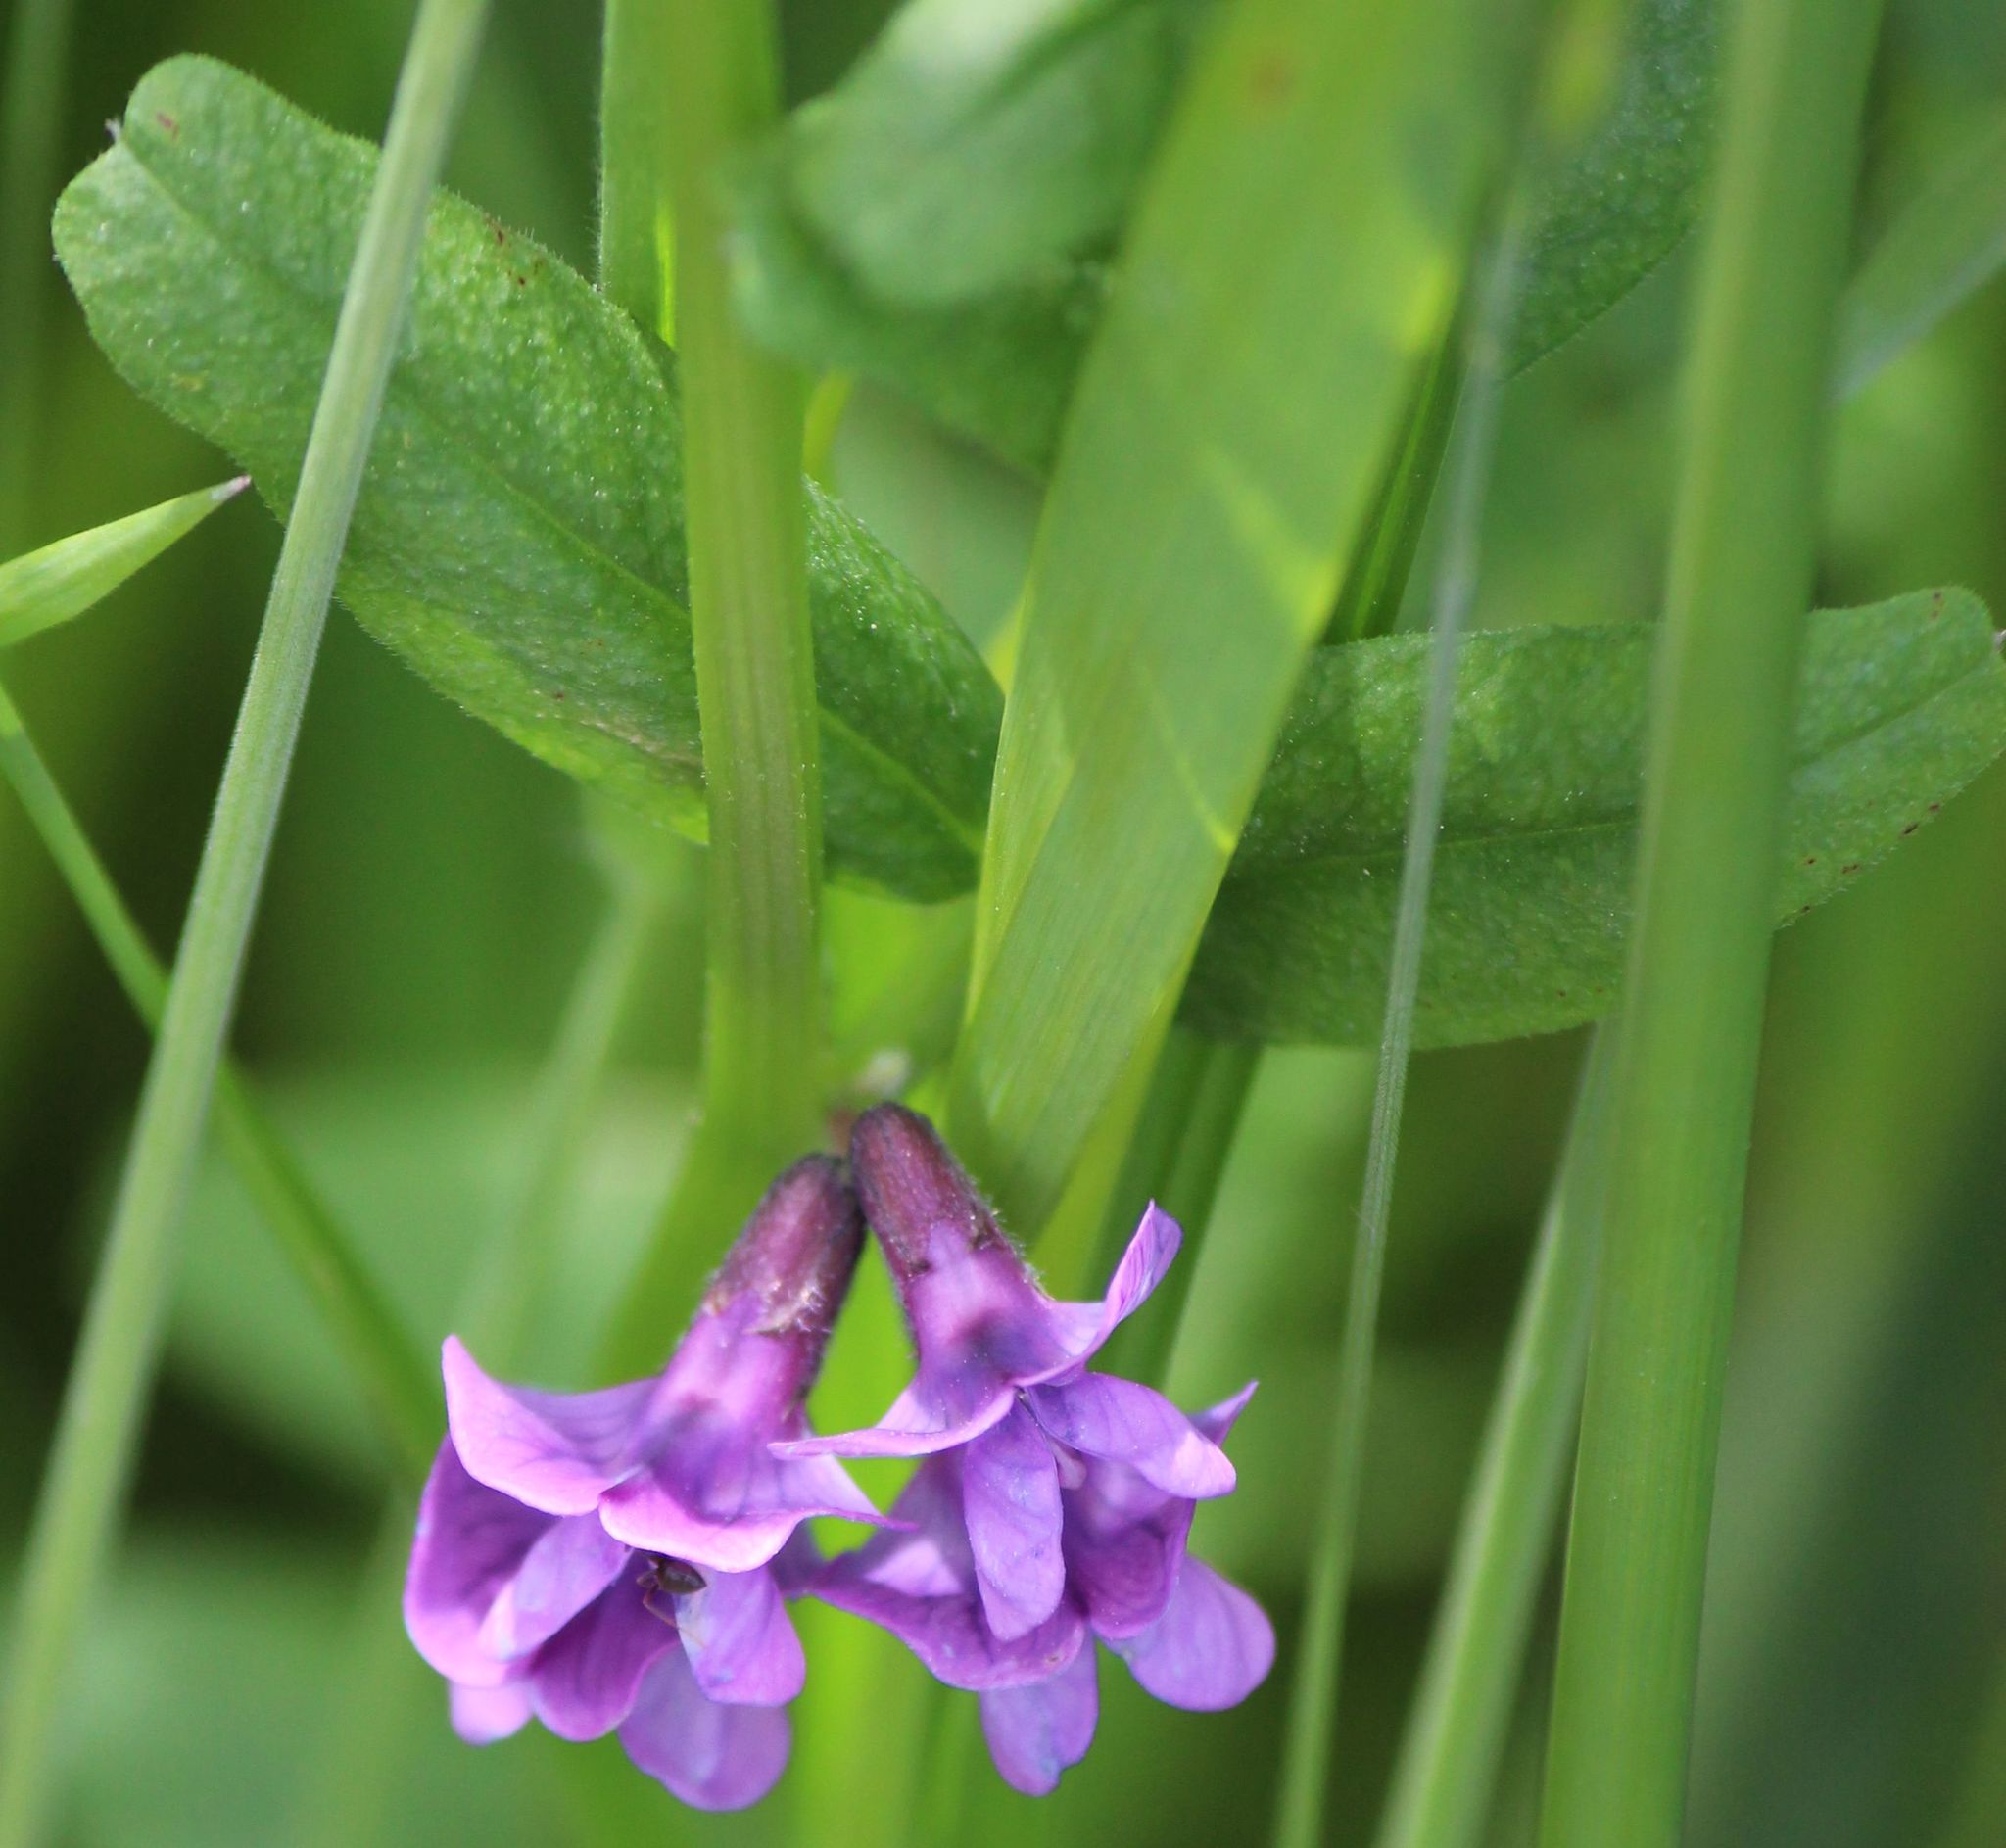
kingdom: Plantae
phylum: Tracheophyta
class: Magnoliopsida
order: Fabales
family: Fabaceae
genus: Vicia
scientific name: Vicia sepium
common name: Bush vetch
